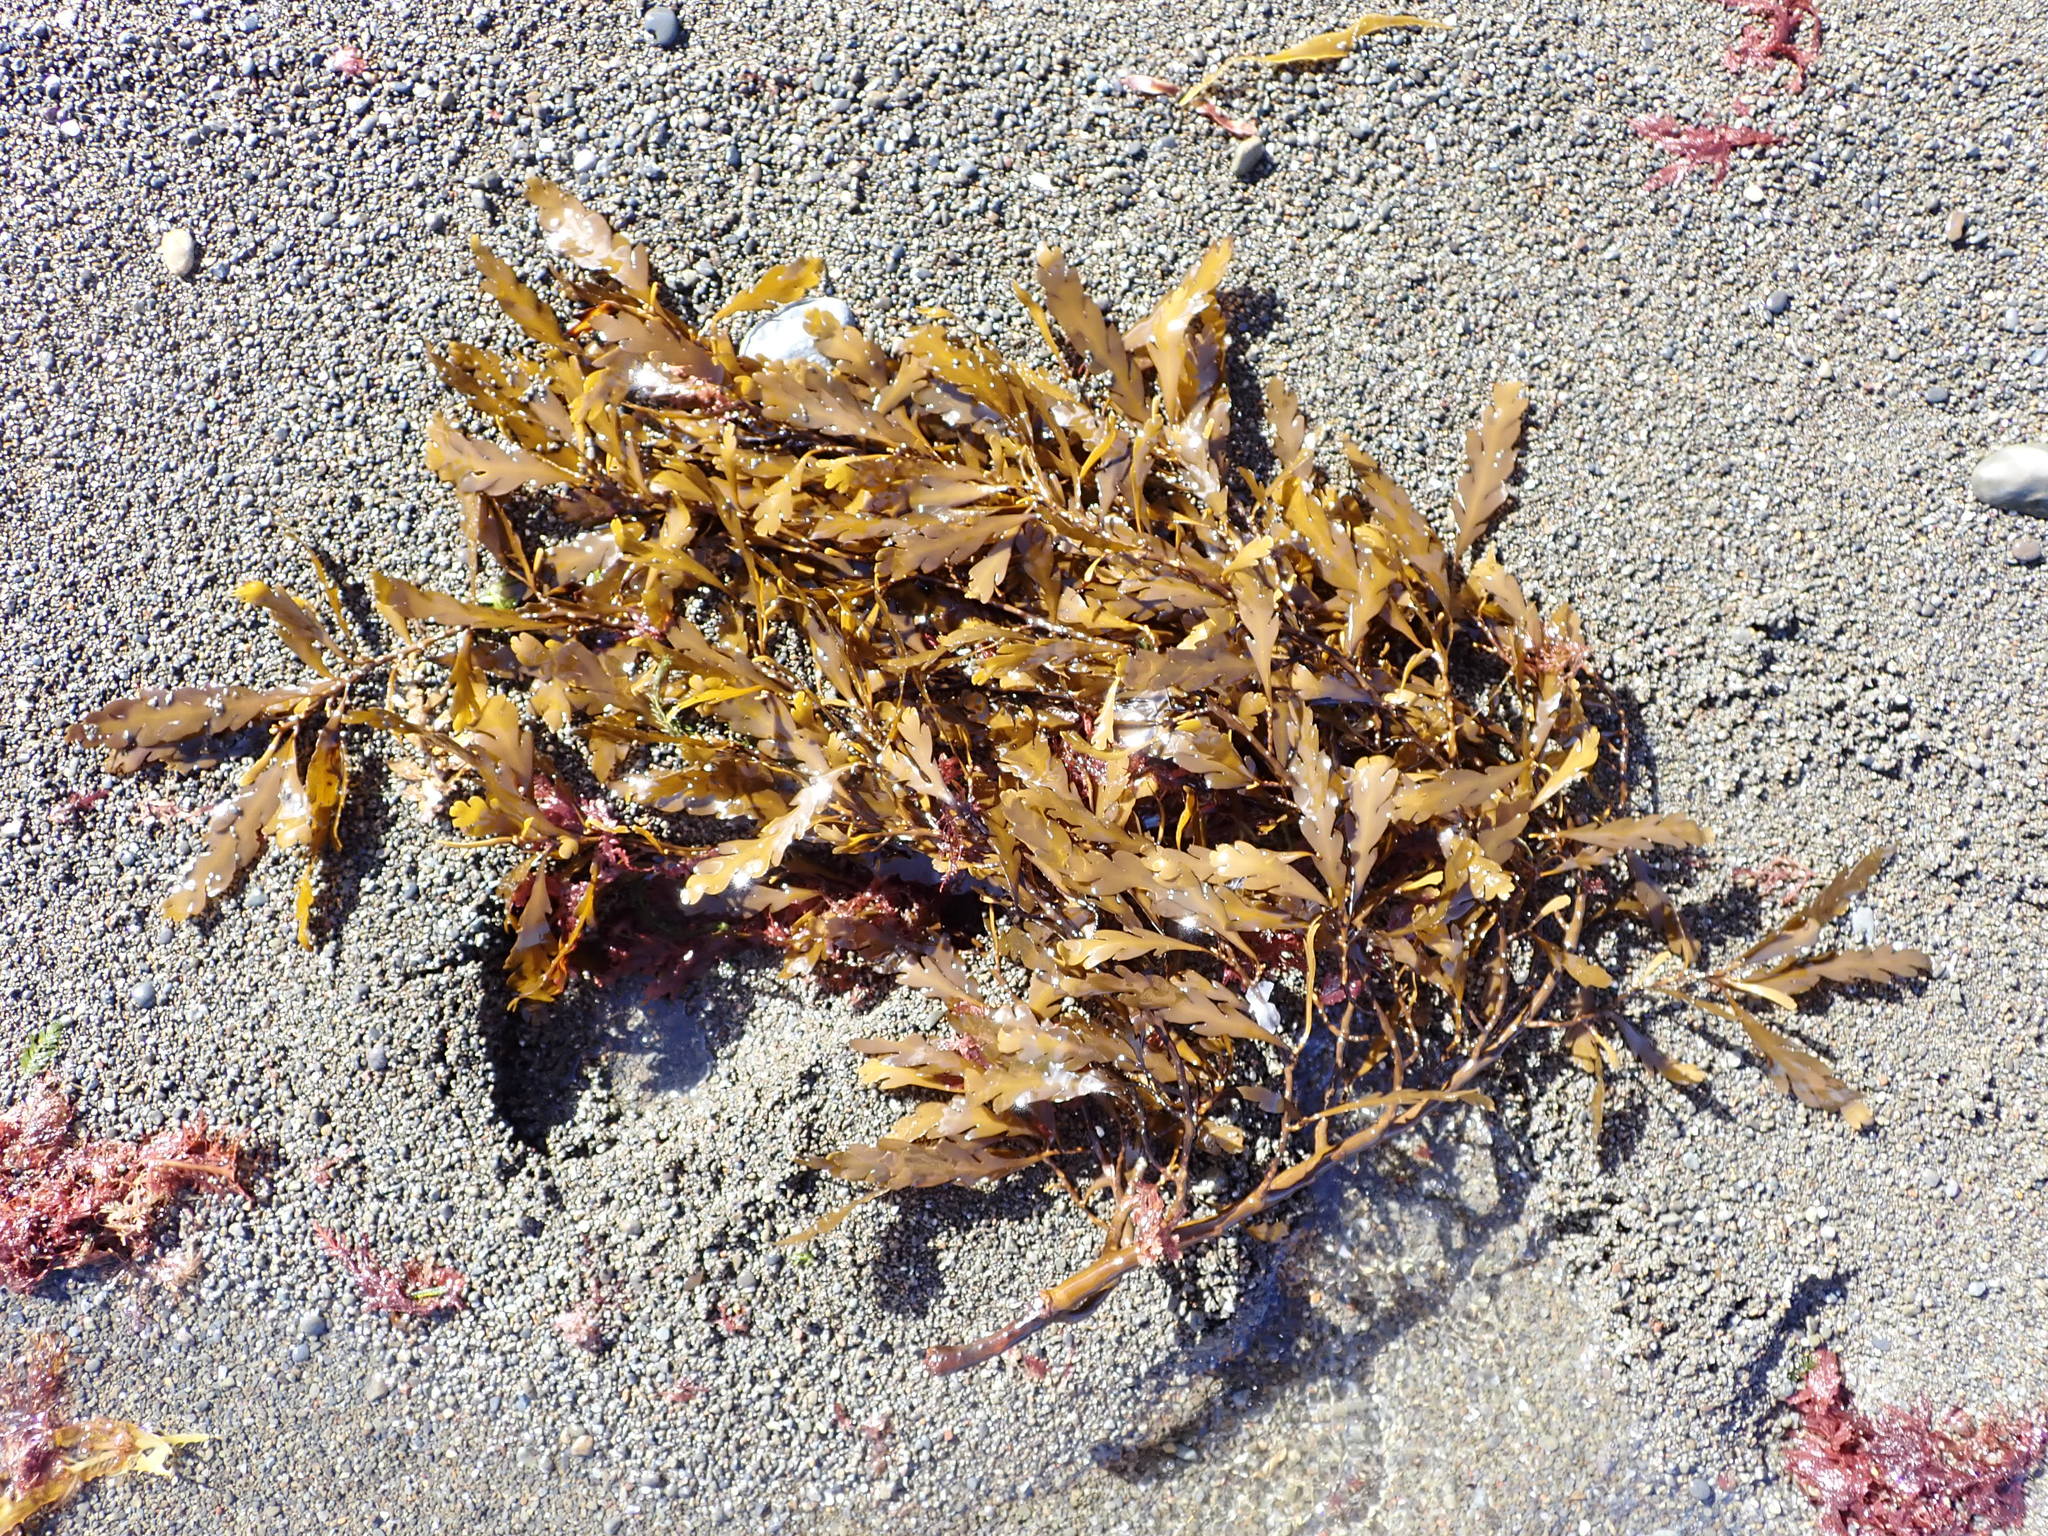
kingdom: Chromista
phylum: Ochrophyta
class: Phaeophyceae
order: Fucales
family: Sargassaceae
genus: Landsburgia
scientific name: Landsburgia quercifolia
